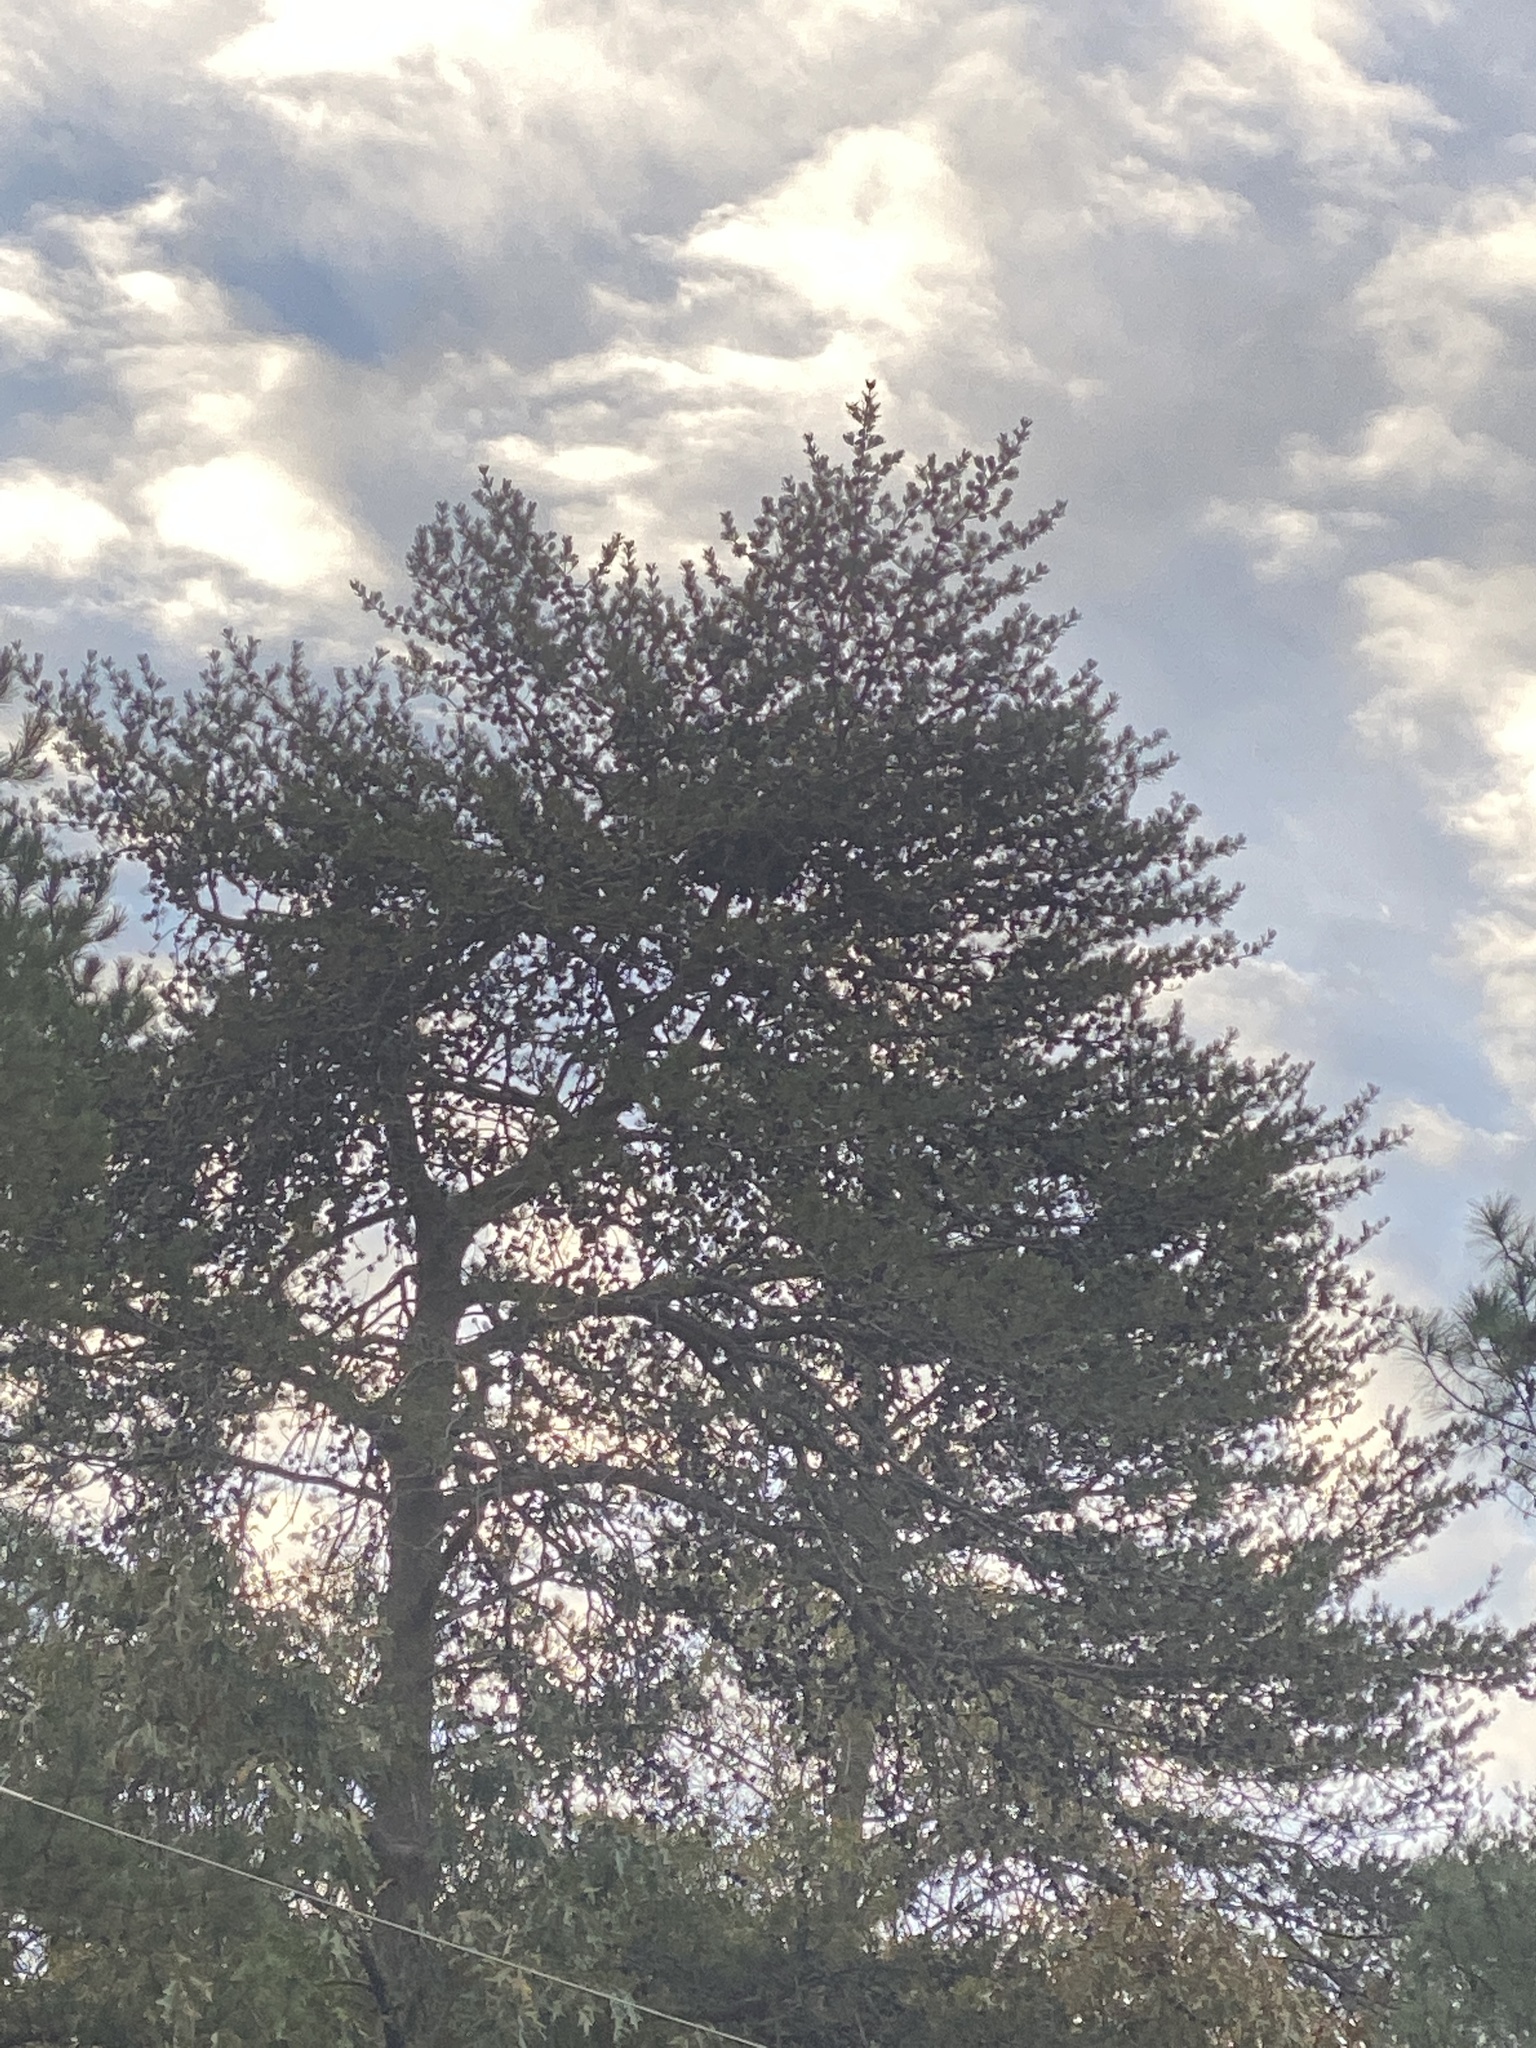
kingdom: Plantae
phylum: Tracheophyta
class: Pinopsida
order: Pinales
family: Pinaceae
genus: Pinus
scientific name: Pinus virginiana
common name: Scrub pine
